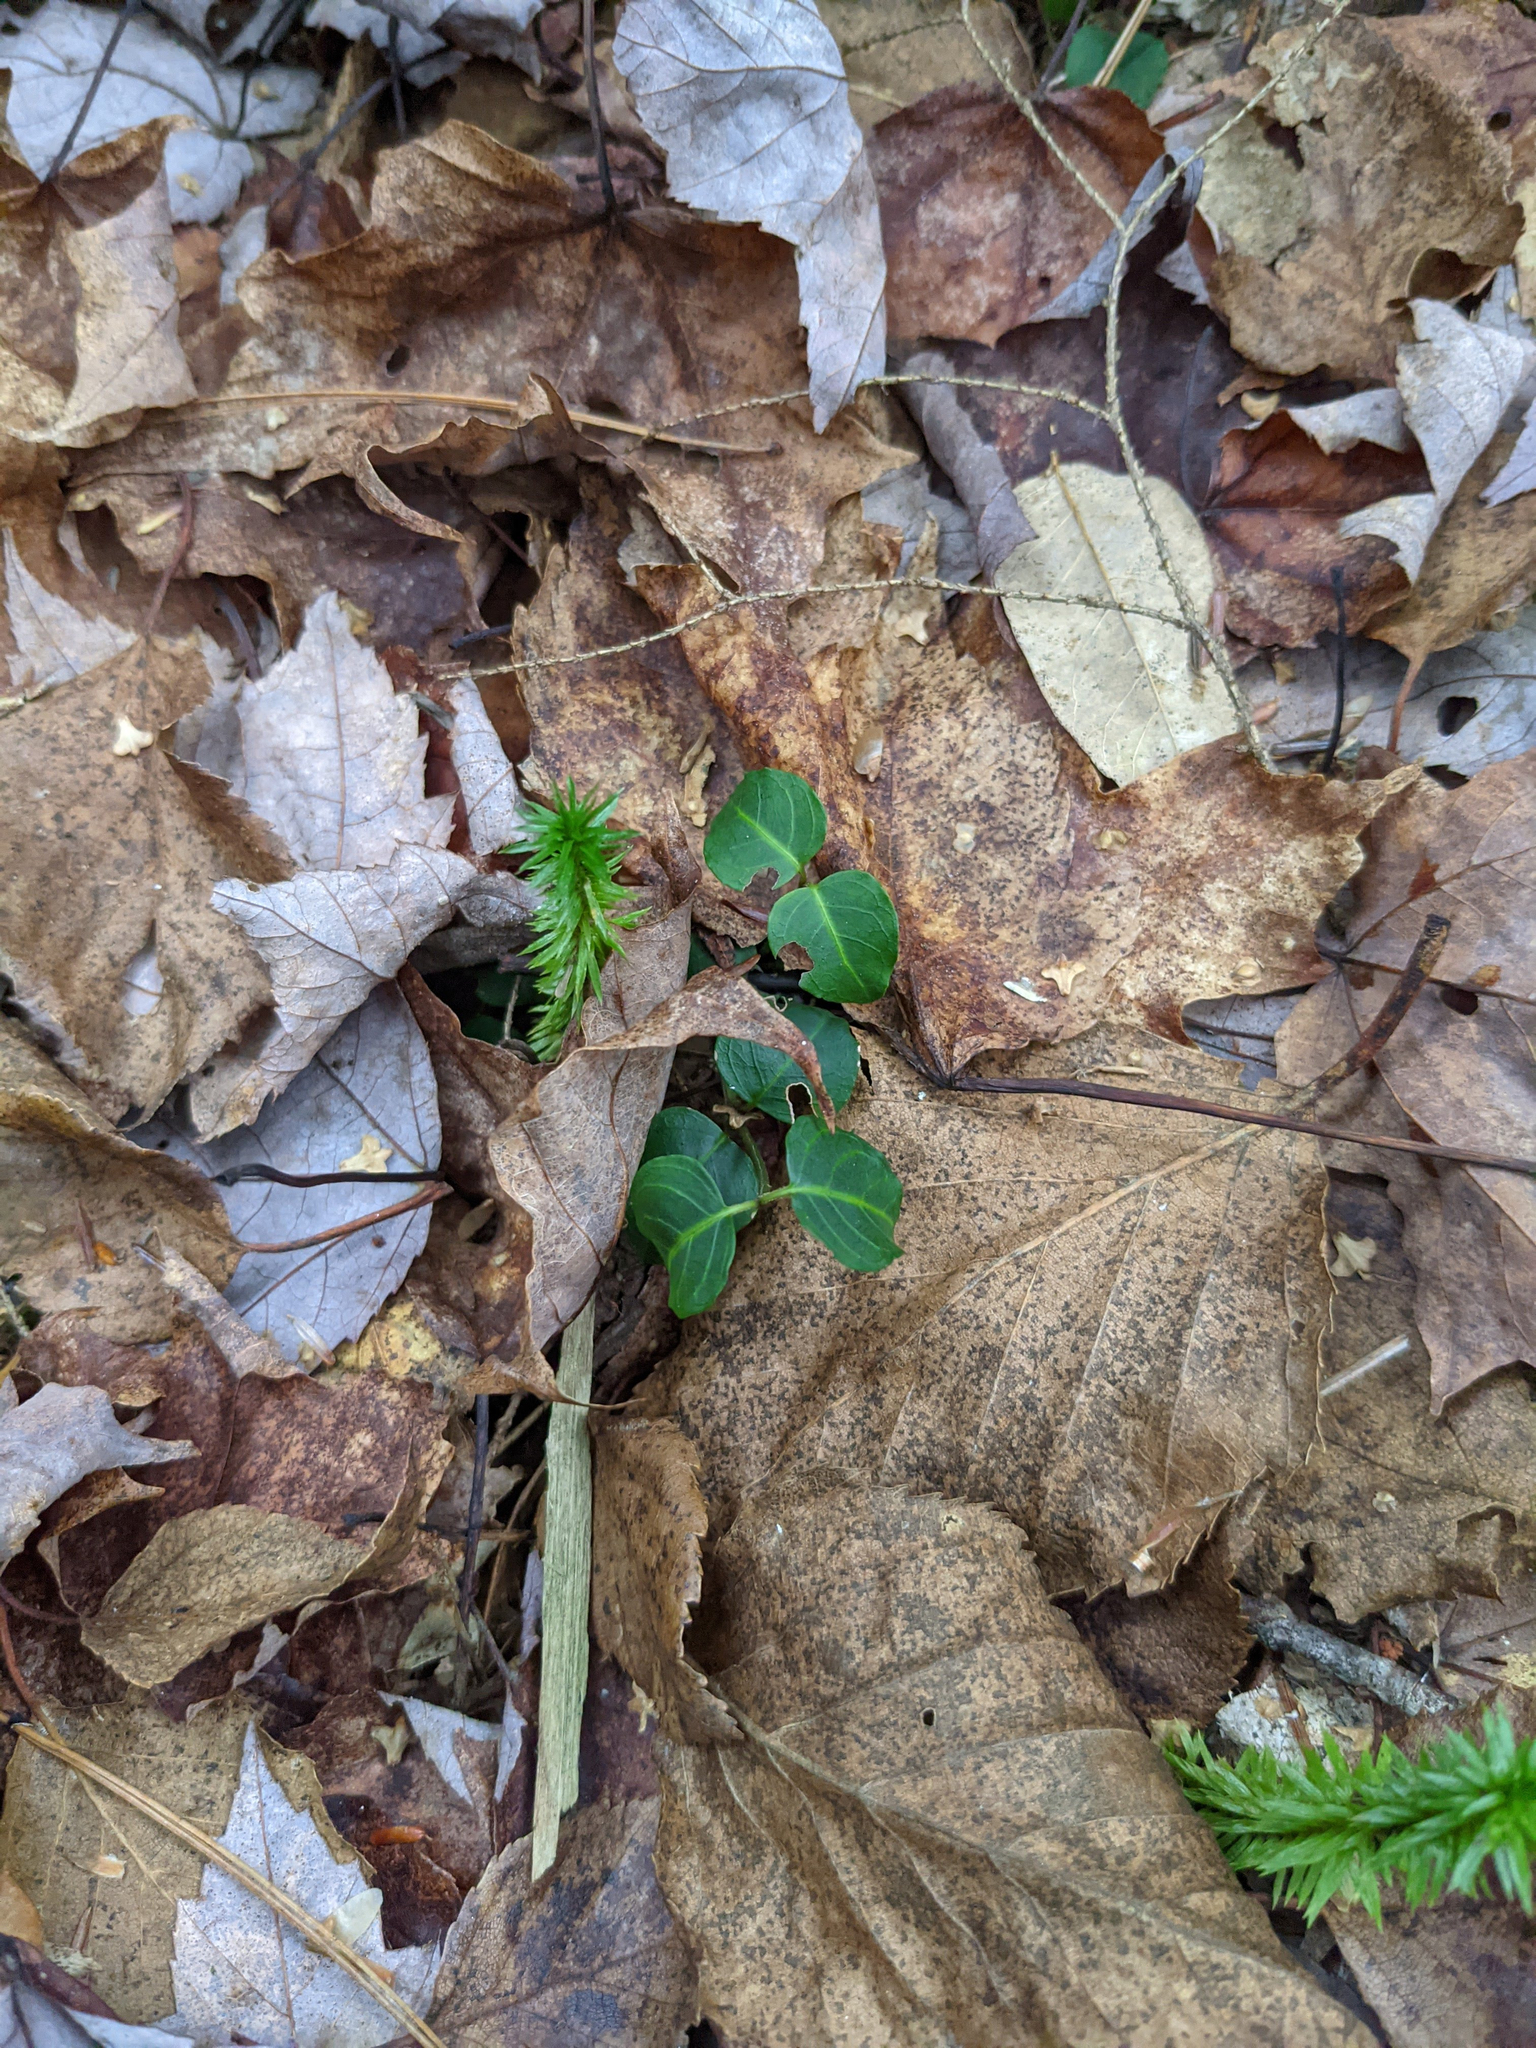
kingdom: Plantae
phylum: Tracheophyta
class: Magnoliopsida
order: Gentianales
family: Rubiaceae
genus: Mitchella
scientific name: Mitchella repens
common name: Partridge-berry
